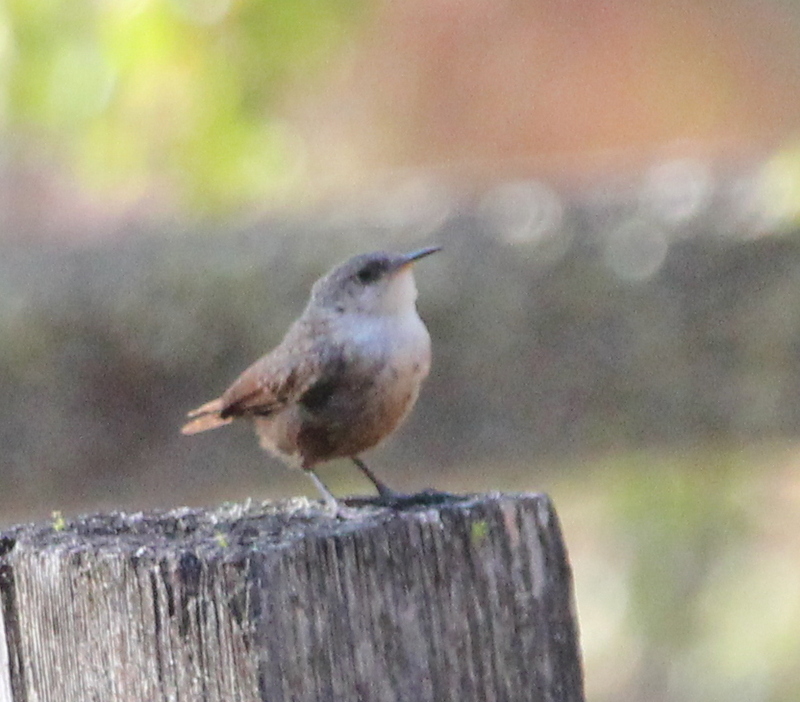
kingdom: Animalia
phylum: Chordata
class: Aves
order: Passeriformes
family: Troglodytidae
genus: Catherpes
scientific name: Catherpes mexicanus
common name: Canyon wren
